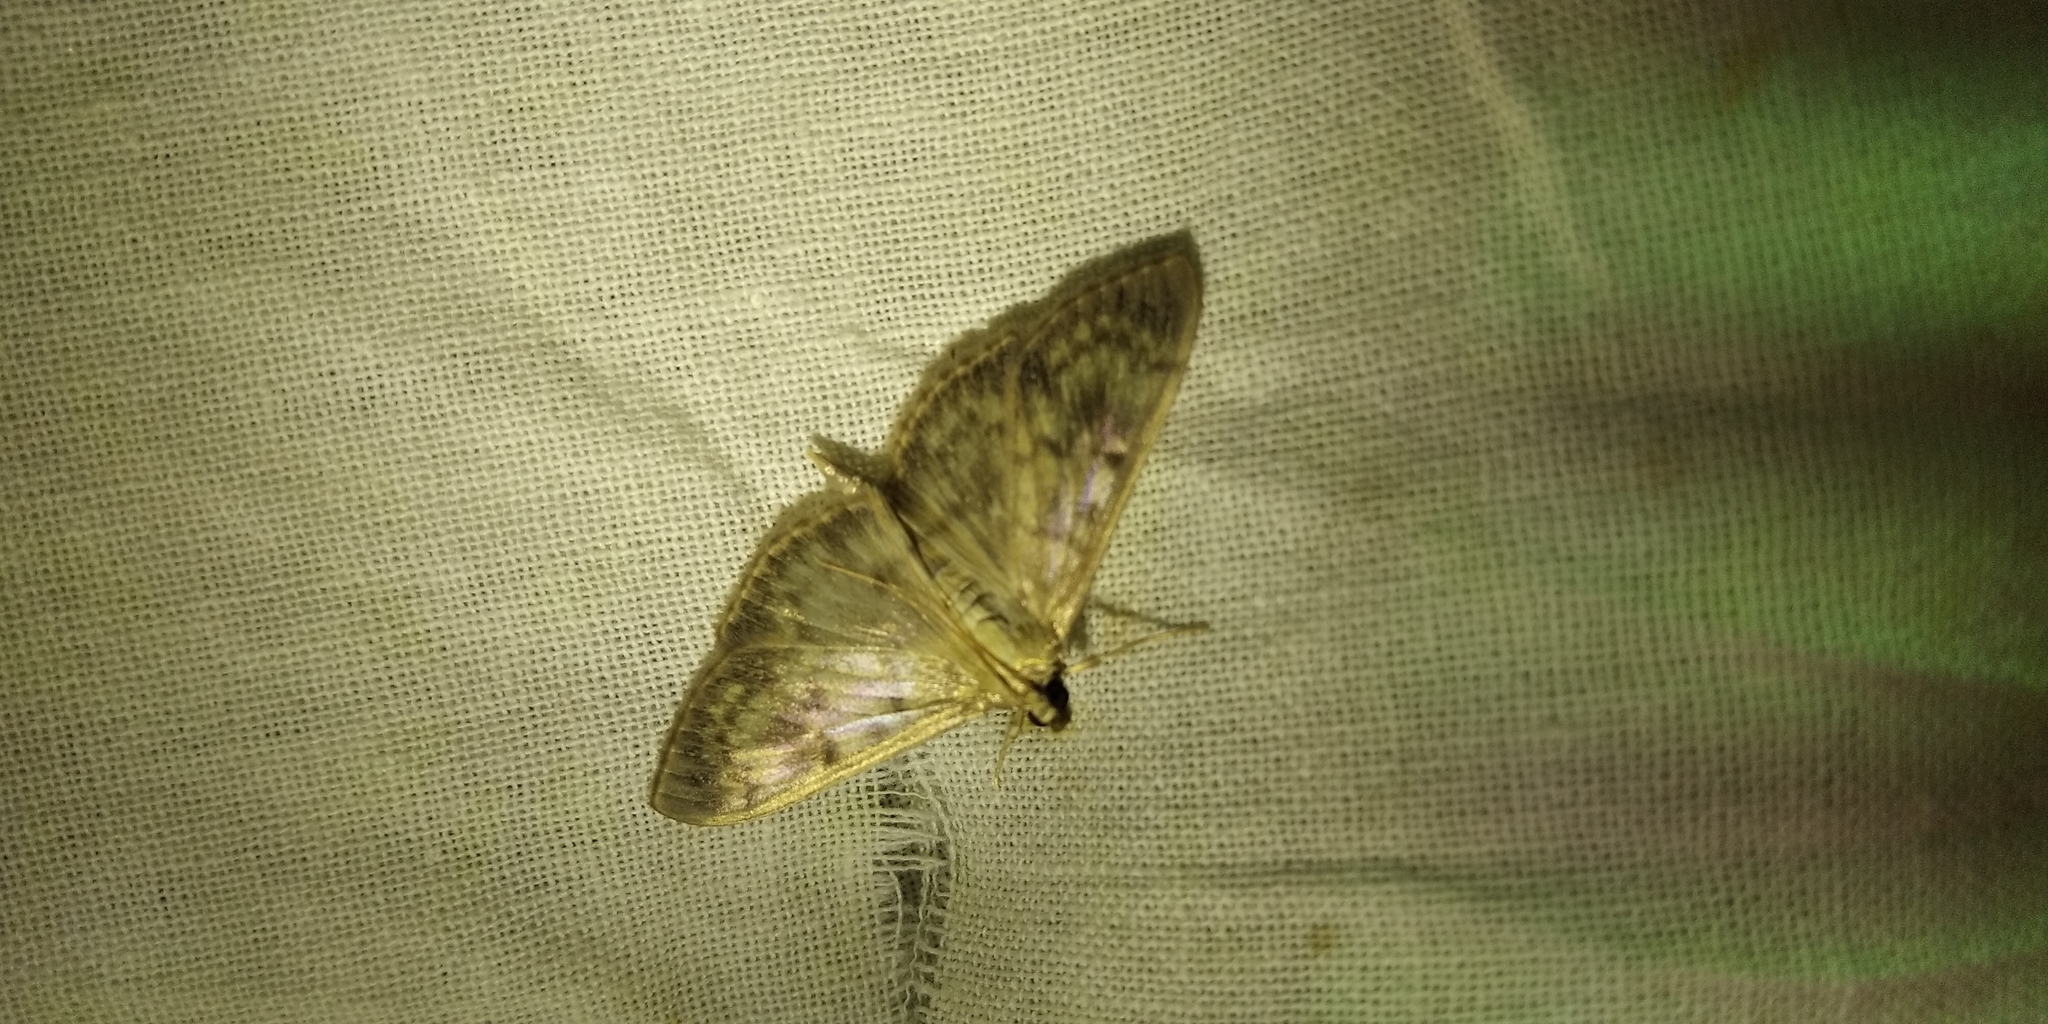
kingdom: Animalia
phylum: Arthropoda
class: Insecta
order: Lepidoptera
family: Crambidae
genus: Patania
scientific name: Patania ruralis
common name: Mother of pearl
